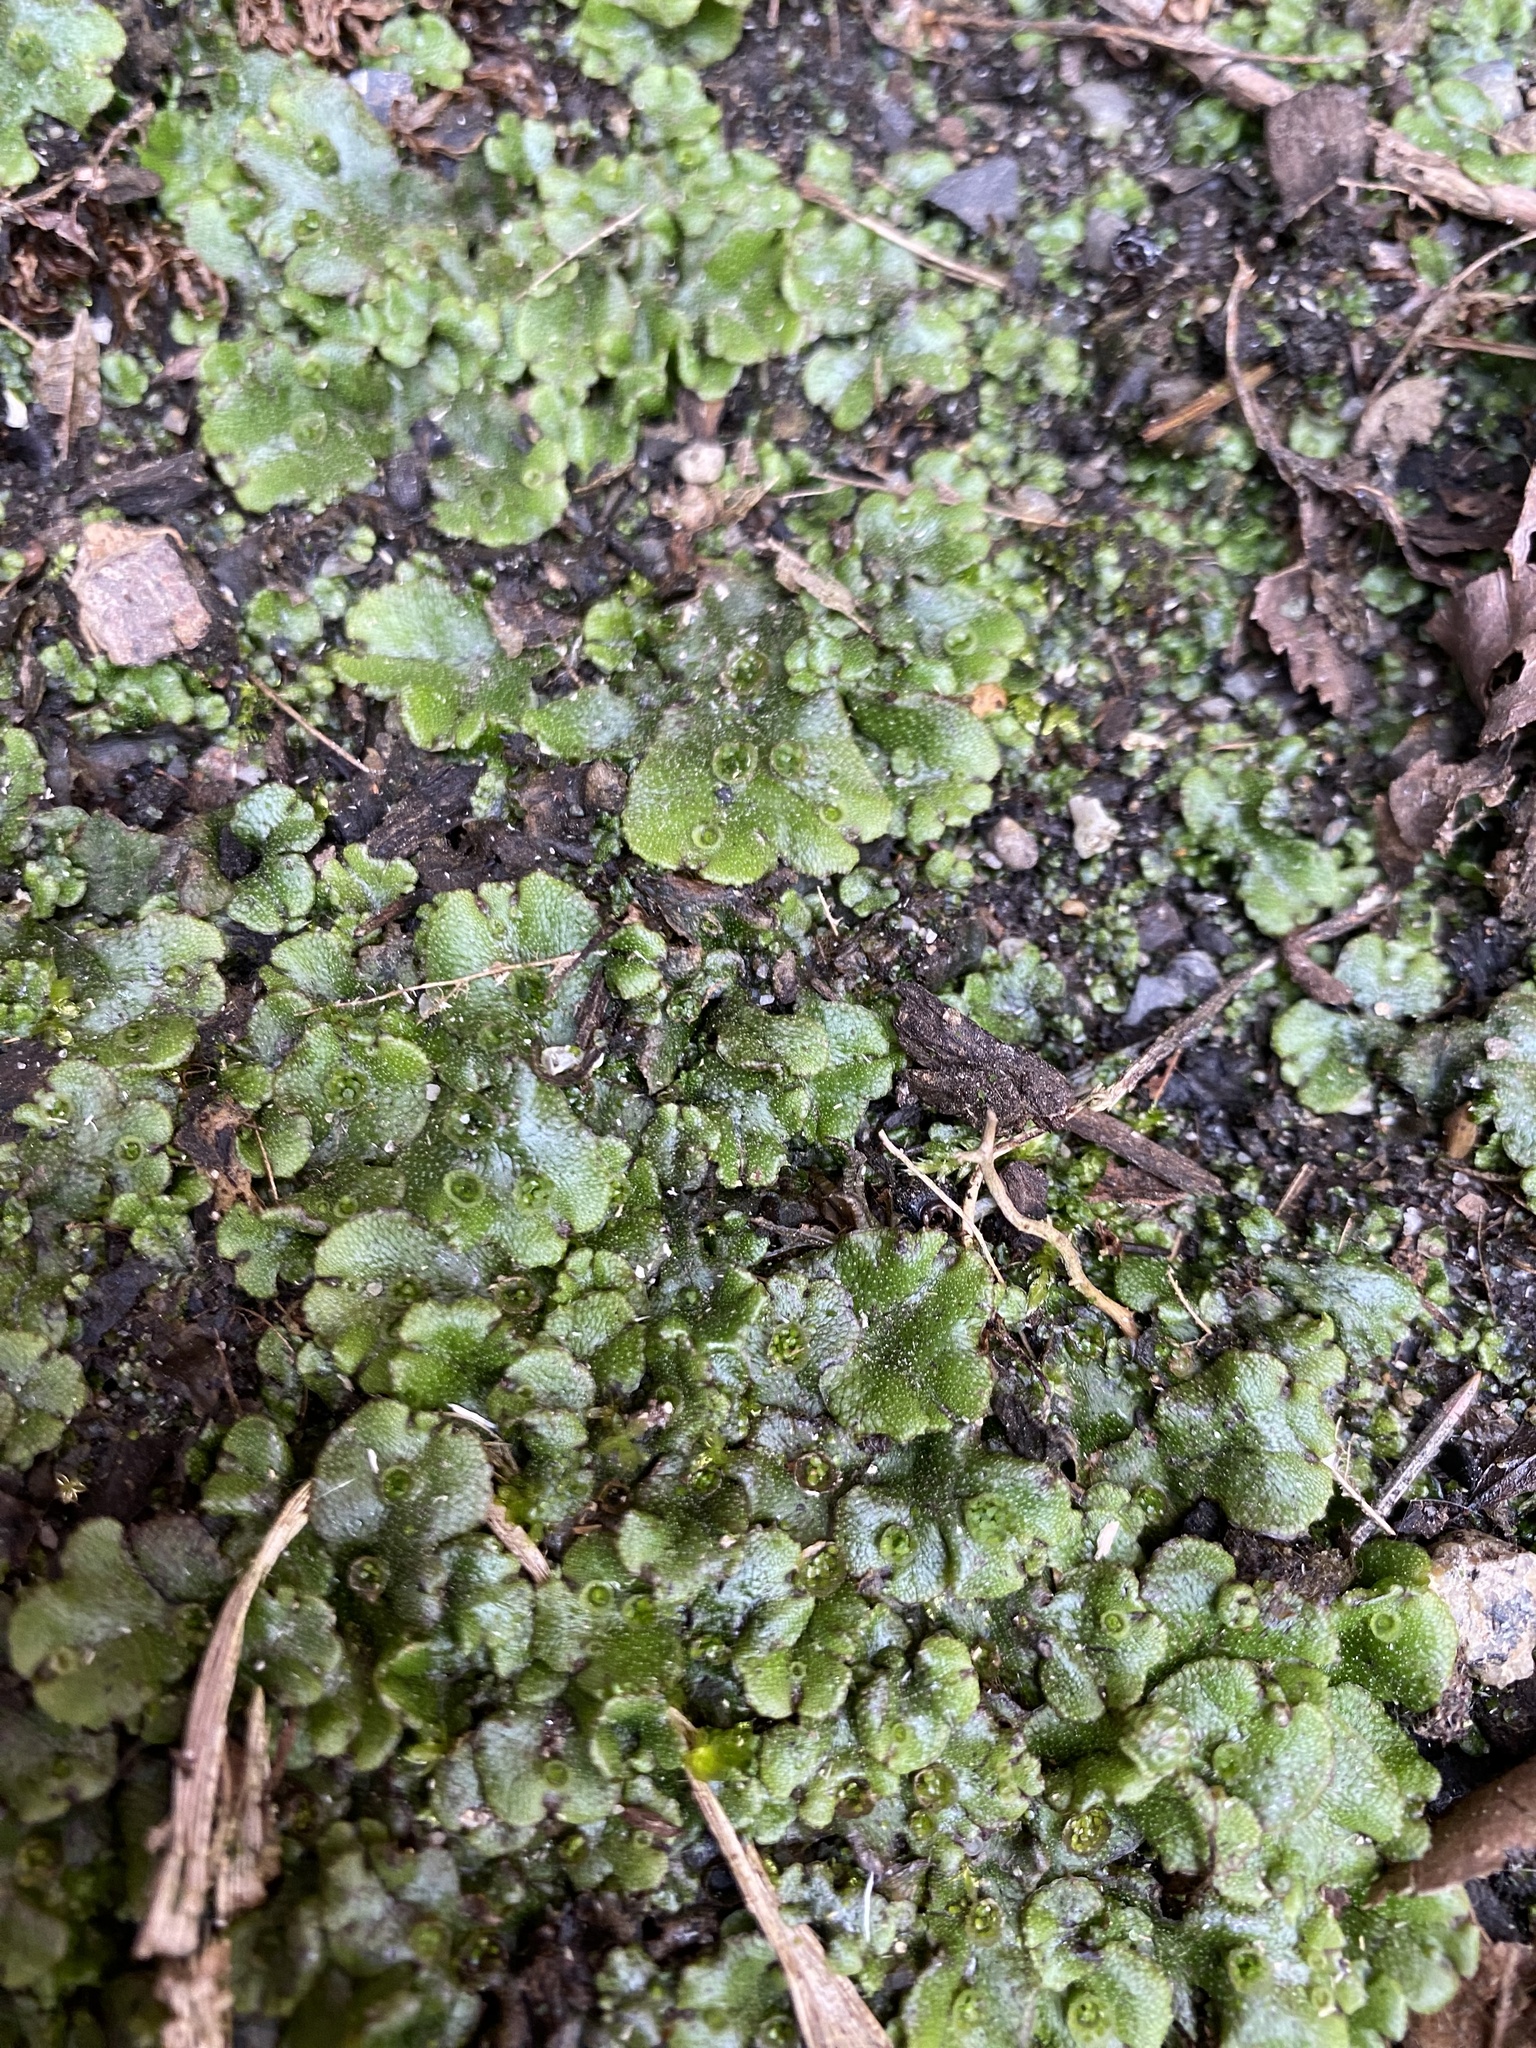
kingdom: Plantae
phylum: Marchantiophyta
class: Marchantiopsida
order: Marchantiales
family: Marchantiaceae
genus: Marchantia
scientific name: Marchantia polymorpha
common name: Common liverwort
